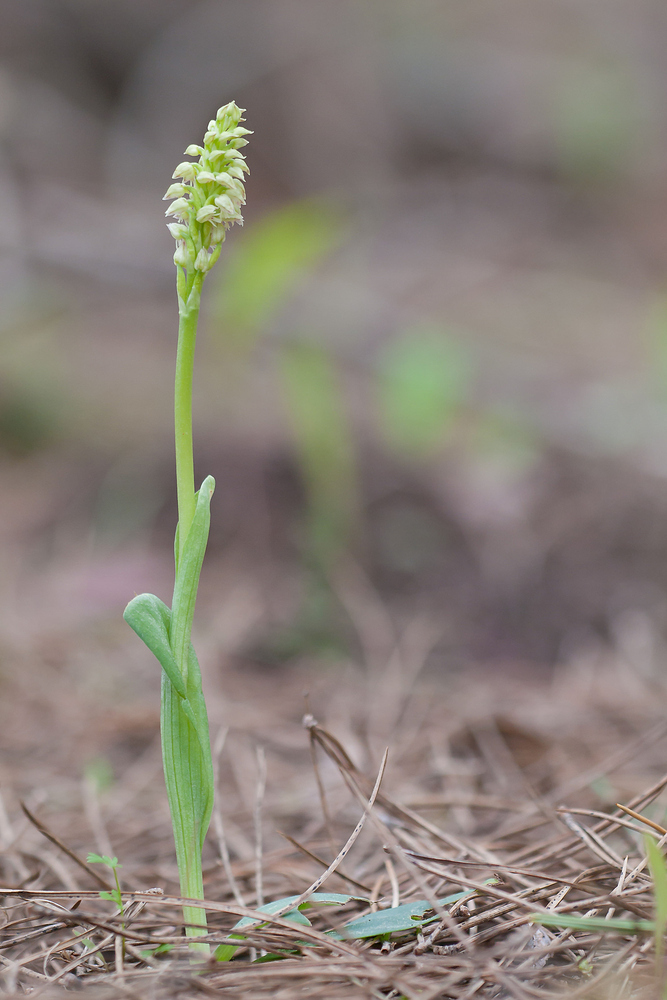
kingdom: Plantae
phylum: Tracheophyta
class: Liliopsida
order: Asparagales
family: Orchidaceae
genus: Neotinea
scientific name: Neotinea maculata
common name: Dense-flowered orchid
